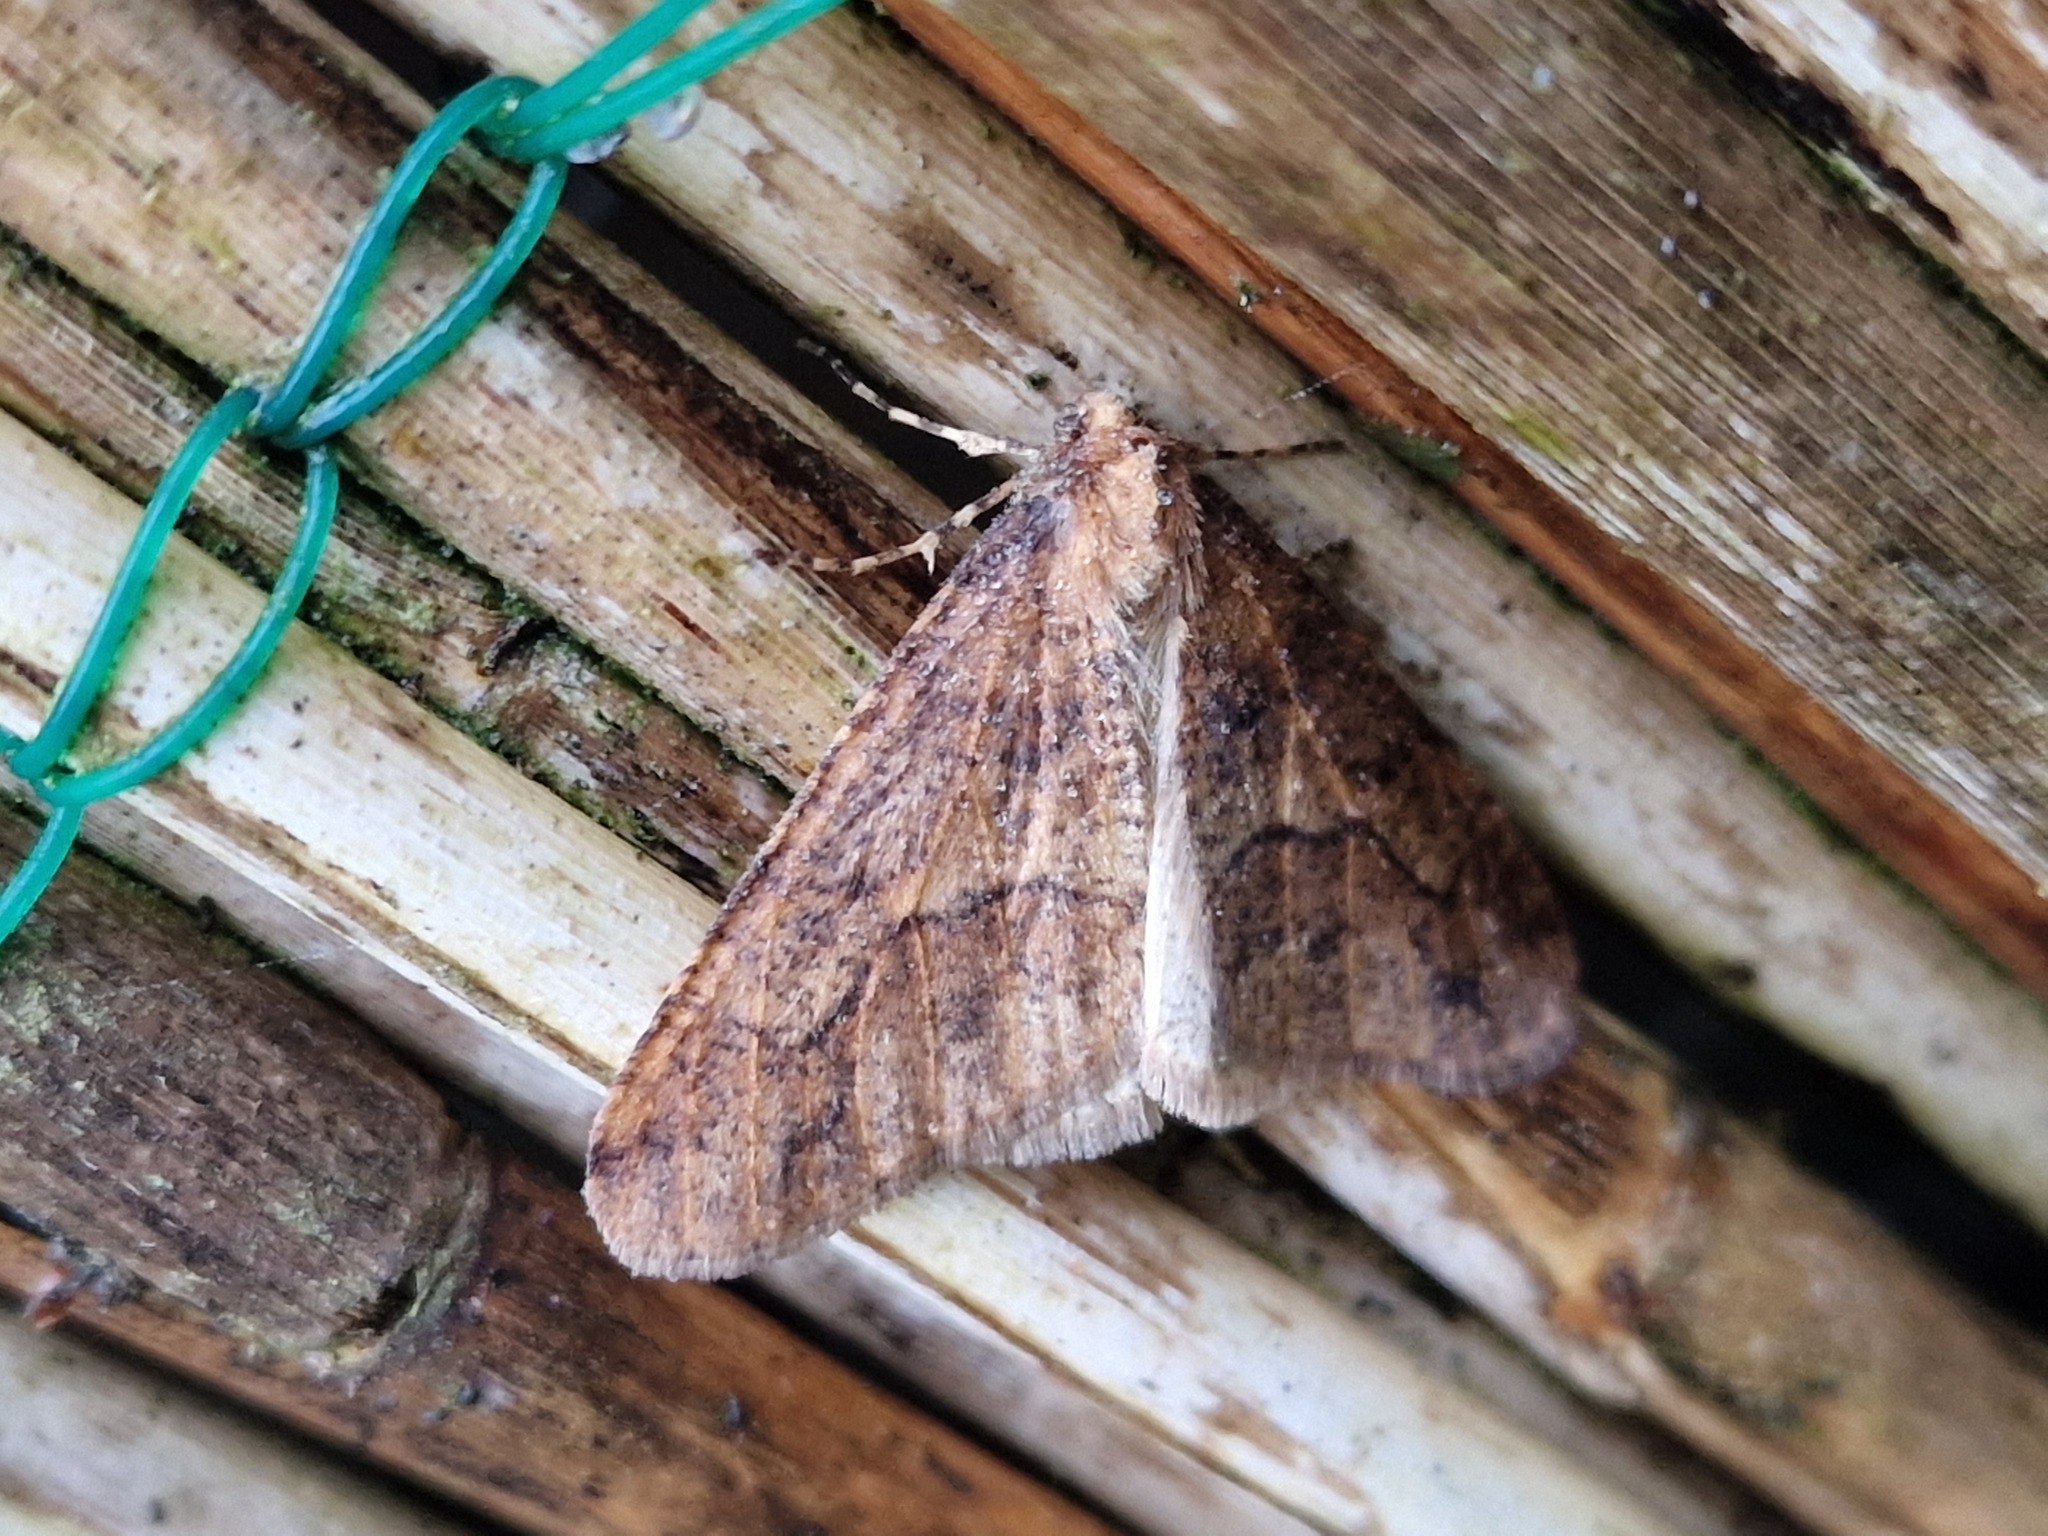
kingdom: Animalia
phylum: Arthropoda
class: Insecta
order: Lepidoptera
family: Geometridae
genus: Erannis
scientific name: Erannis defoliaria
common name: Mottled umber
